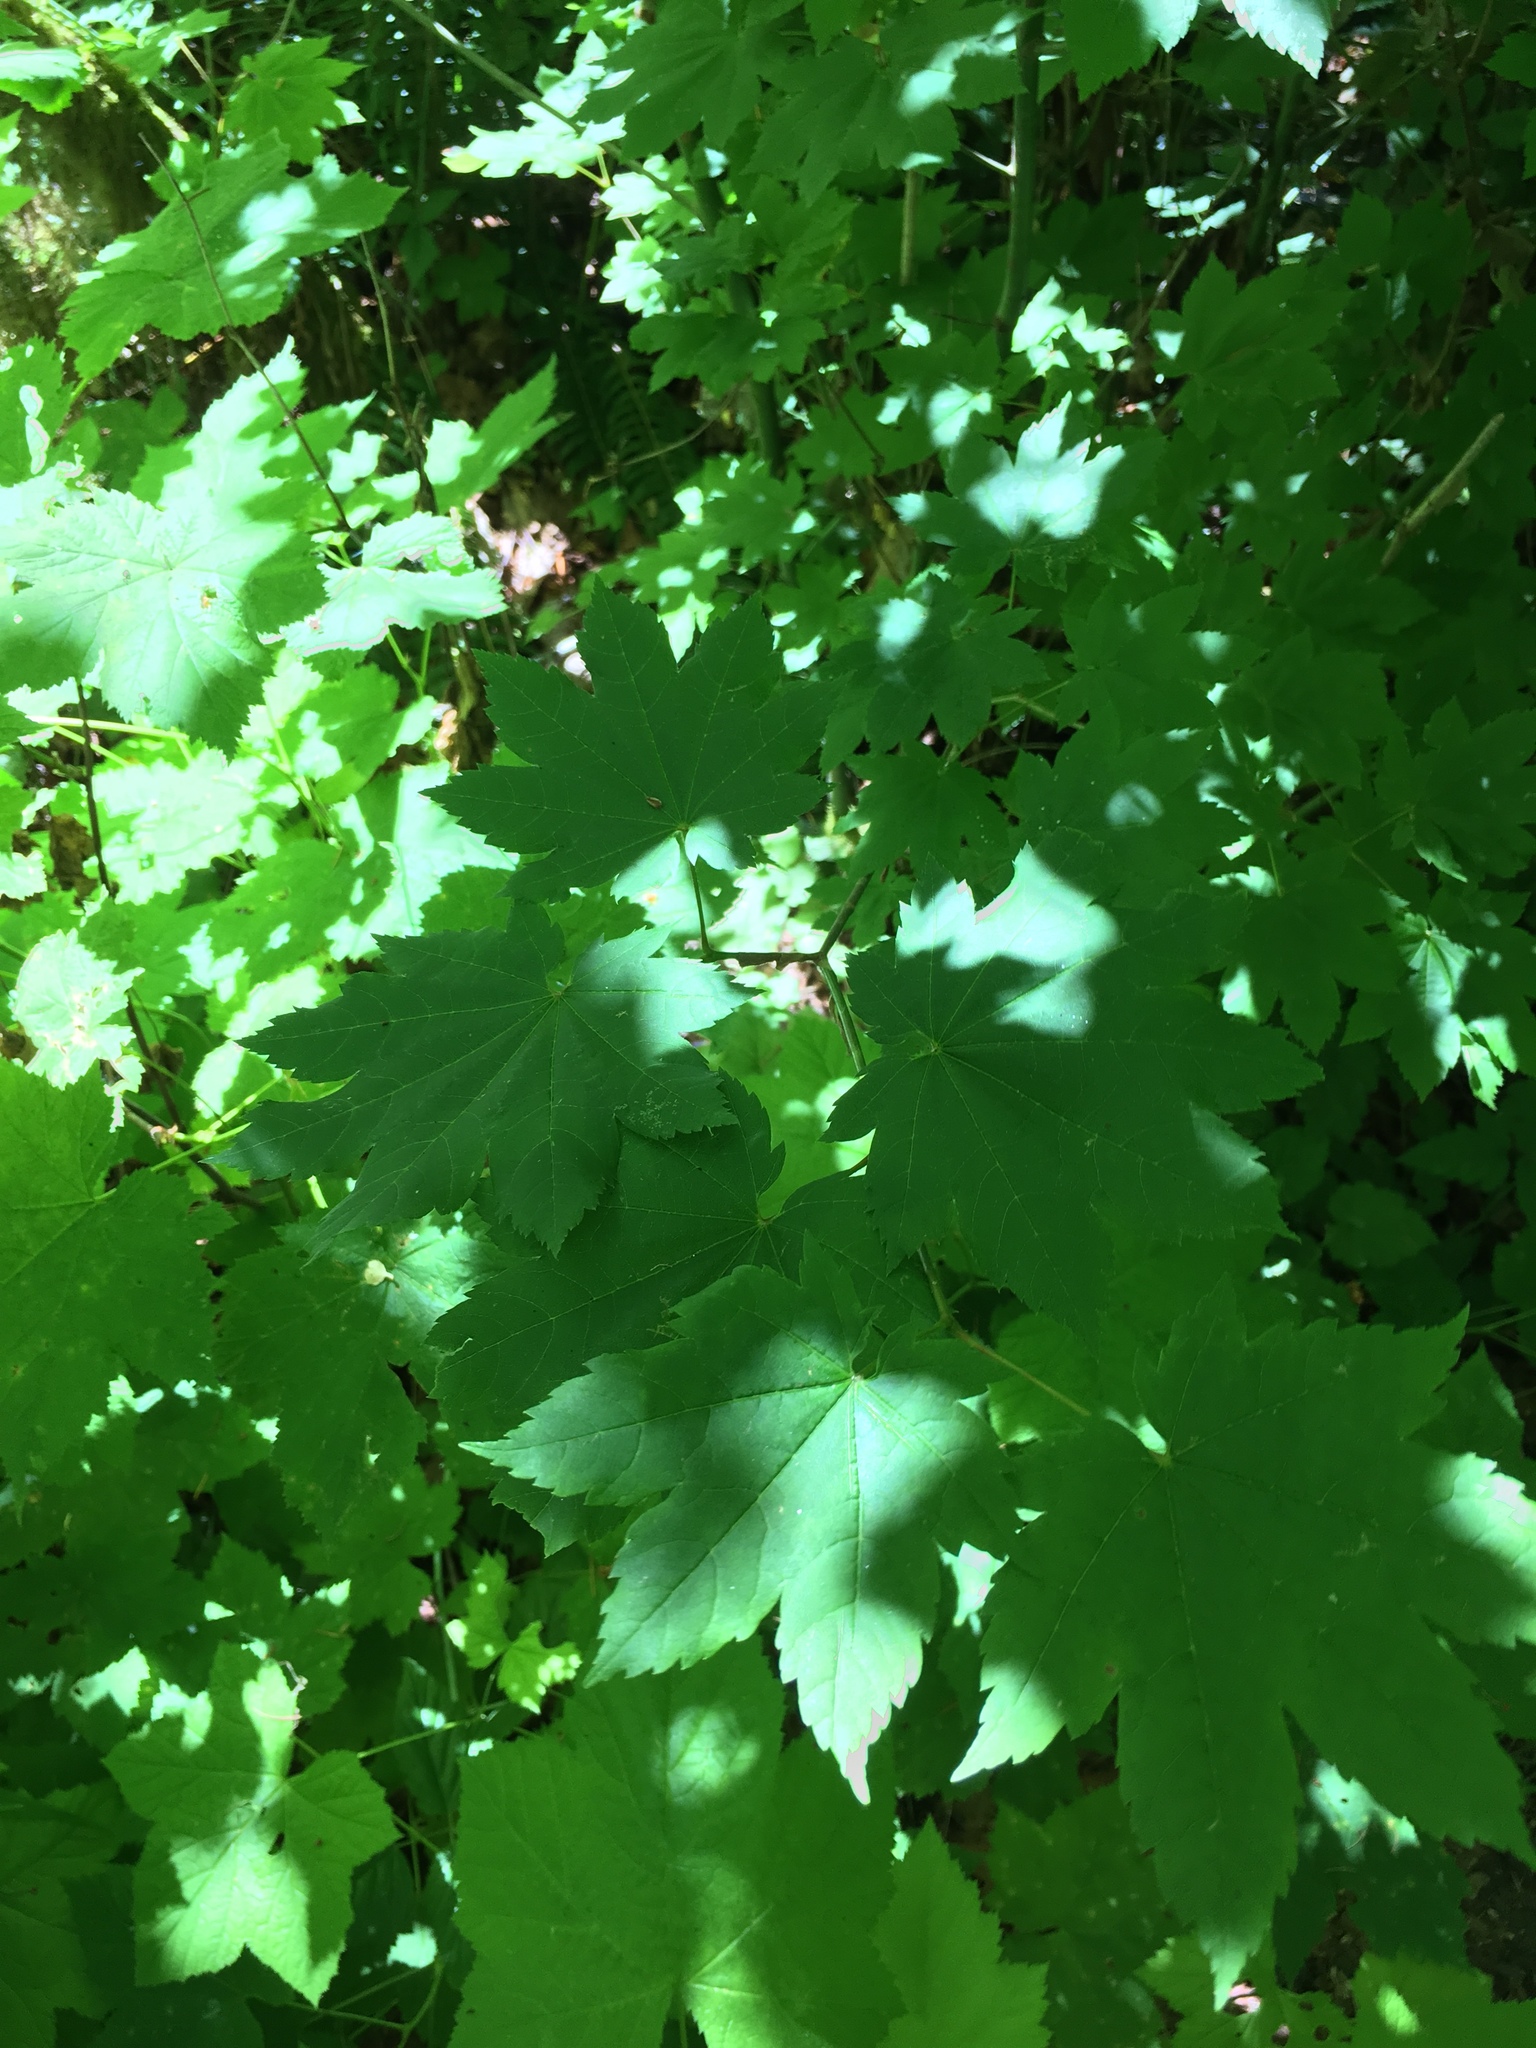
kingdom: Plantae
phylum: Tracheophyta
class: Magnoliopsida
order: Sapindales
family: Sapindaceae
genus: Acer
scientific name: Acer circinatum
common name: Vine maple
